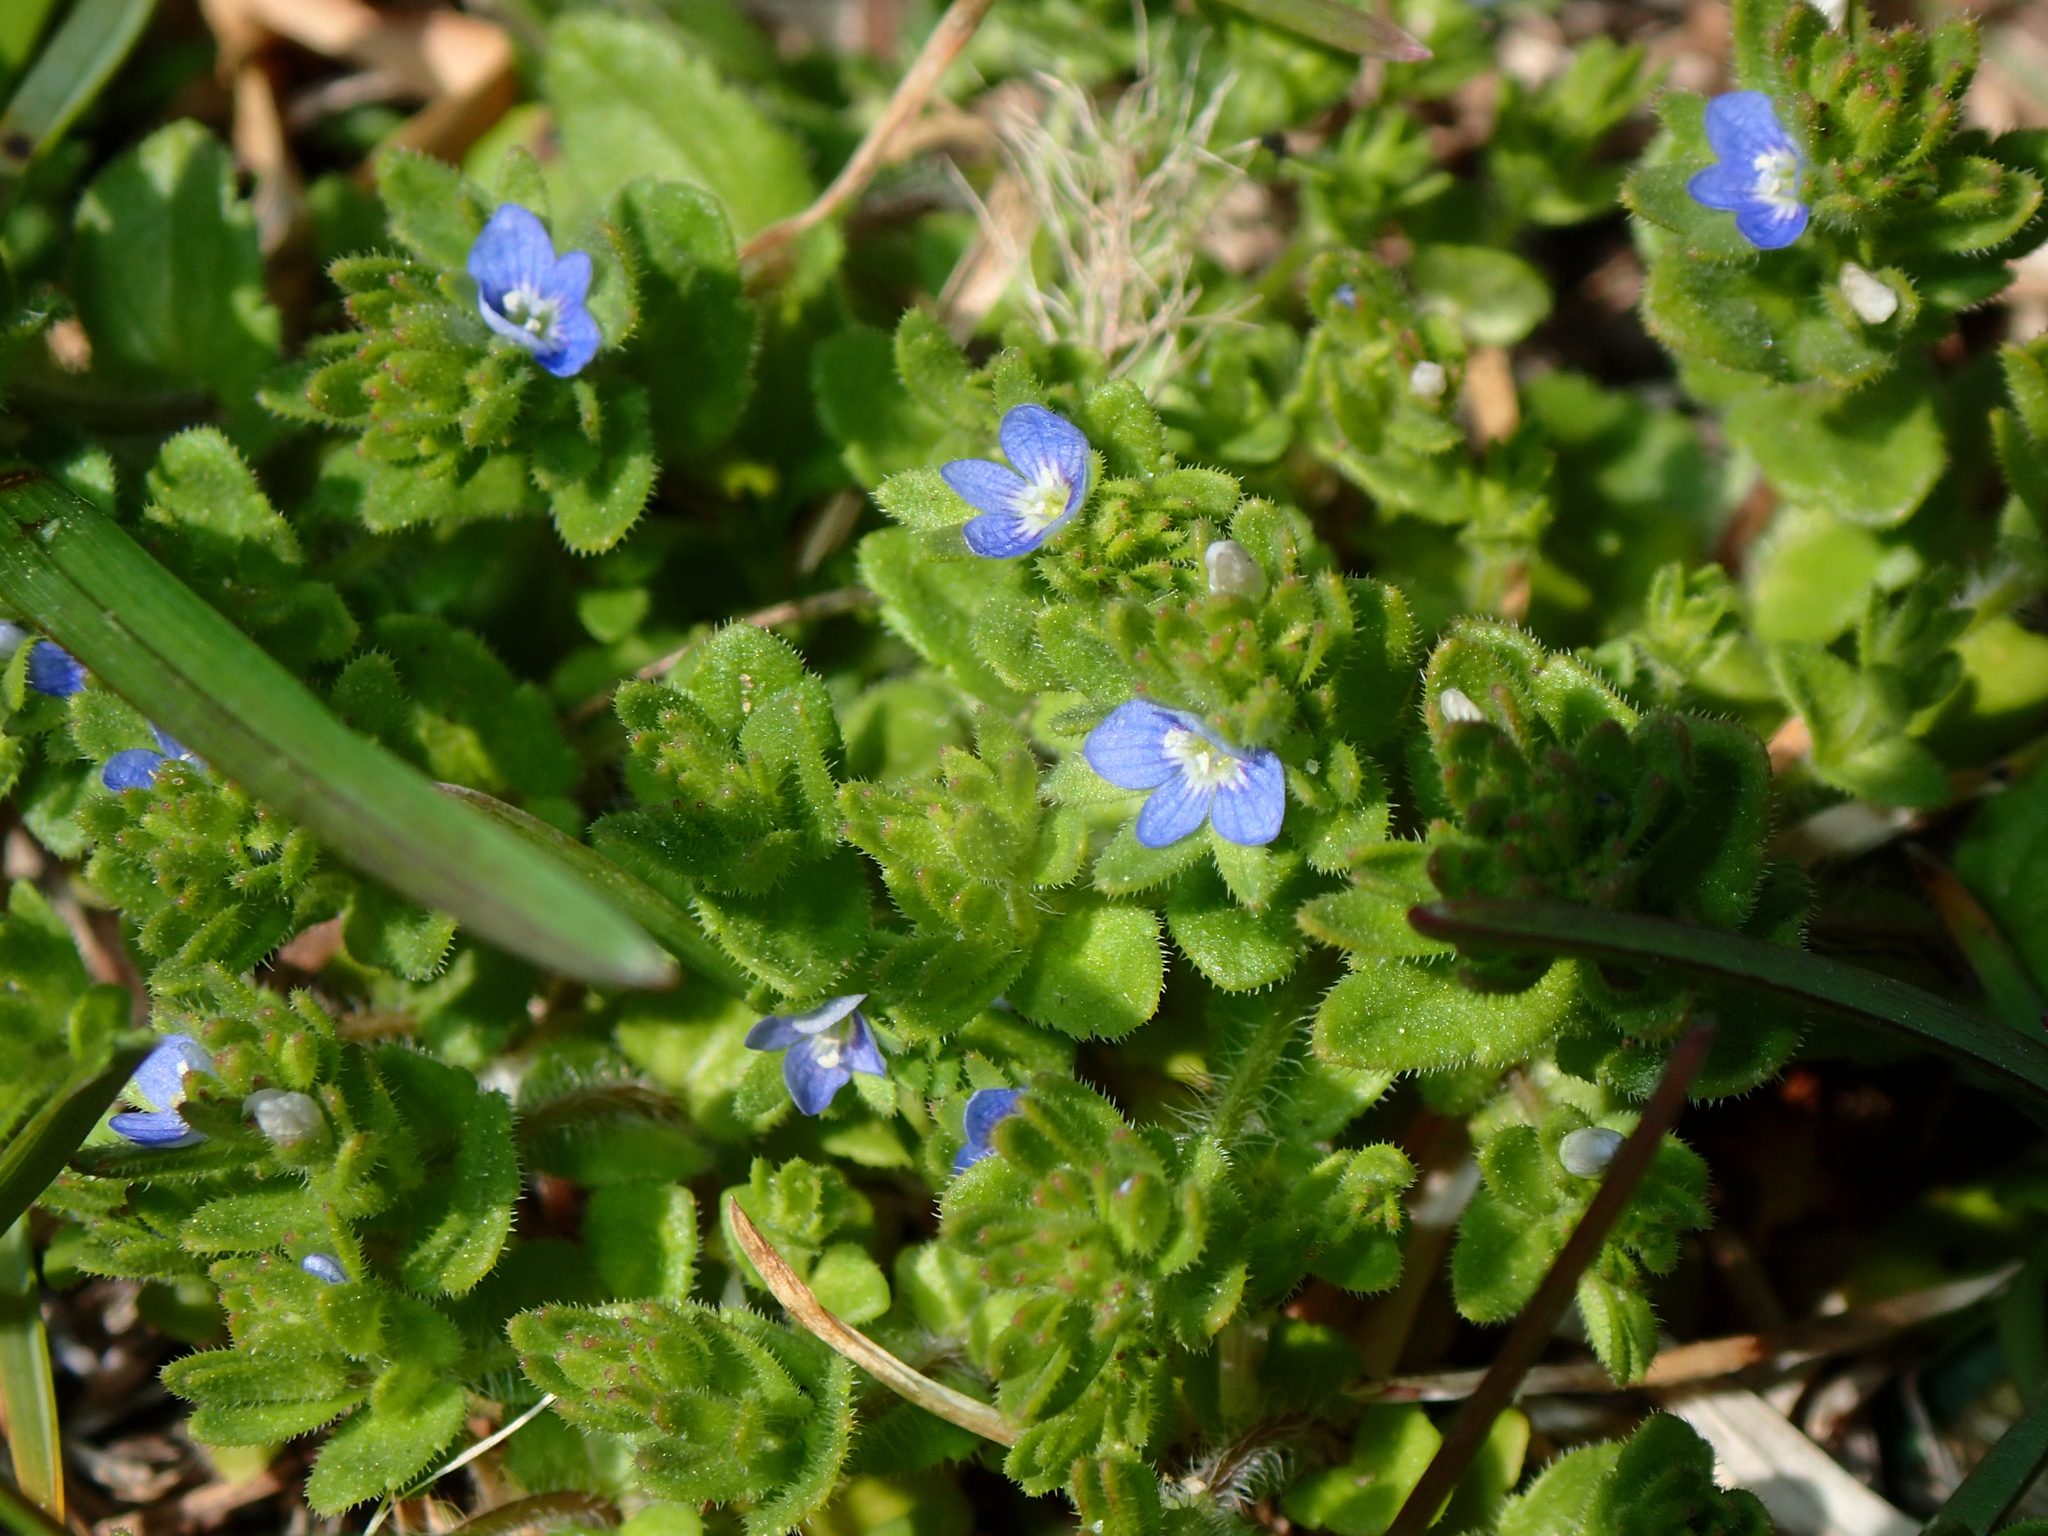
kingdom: Plantae
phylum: Tracheophyta
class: Magnoliopsida
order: Lamiales
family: Plantaginaceae
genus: Veronica
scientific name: Veronica arvensis
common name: Corn speedwell
